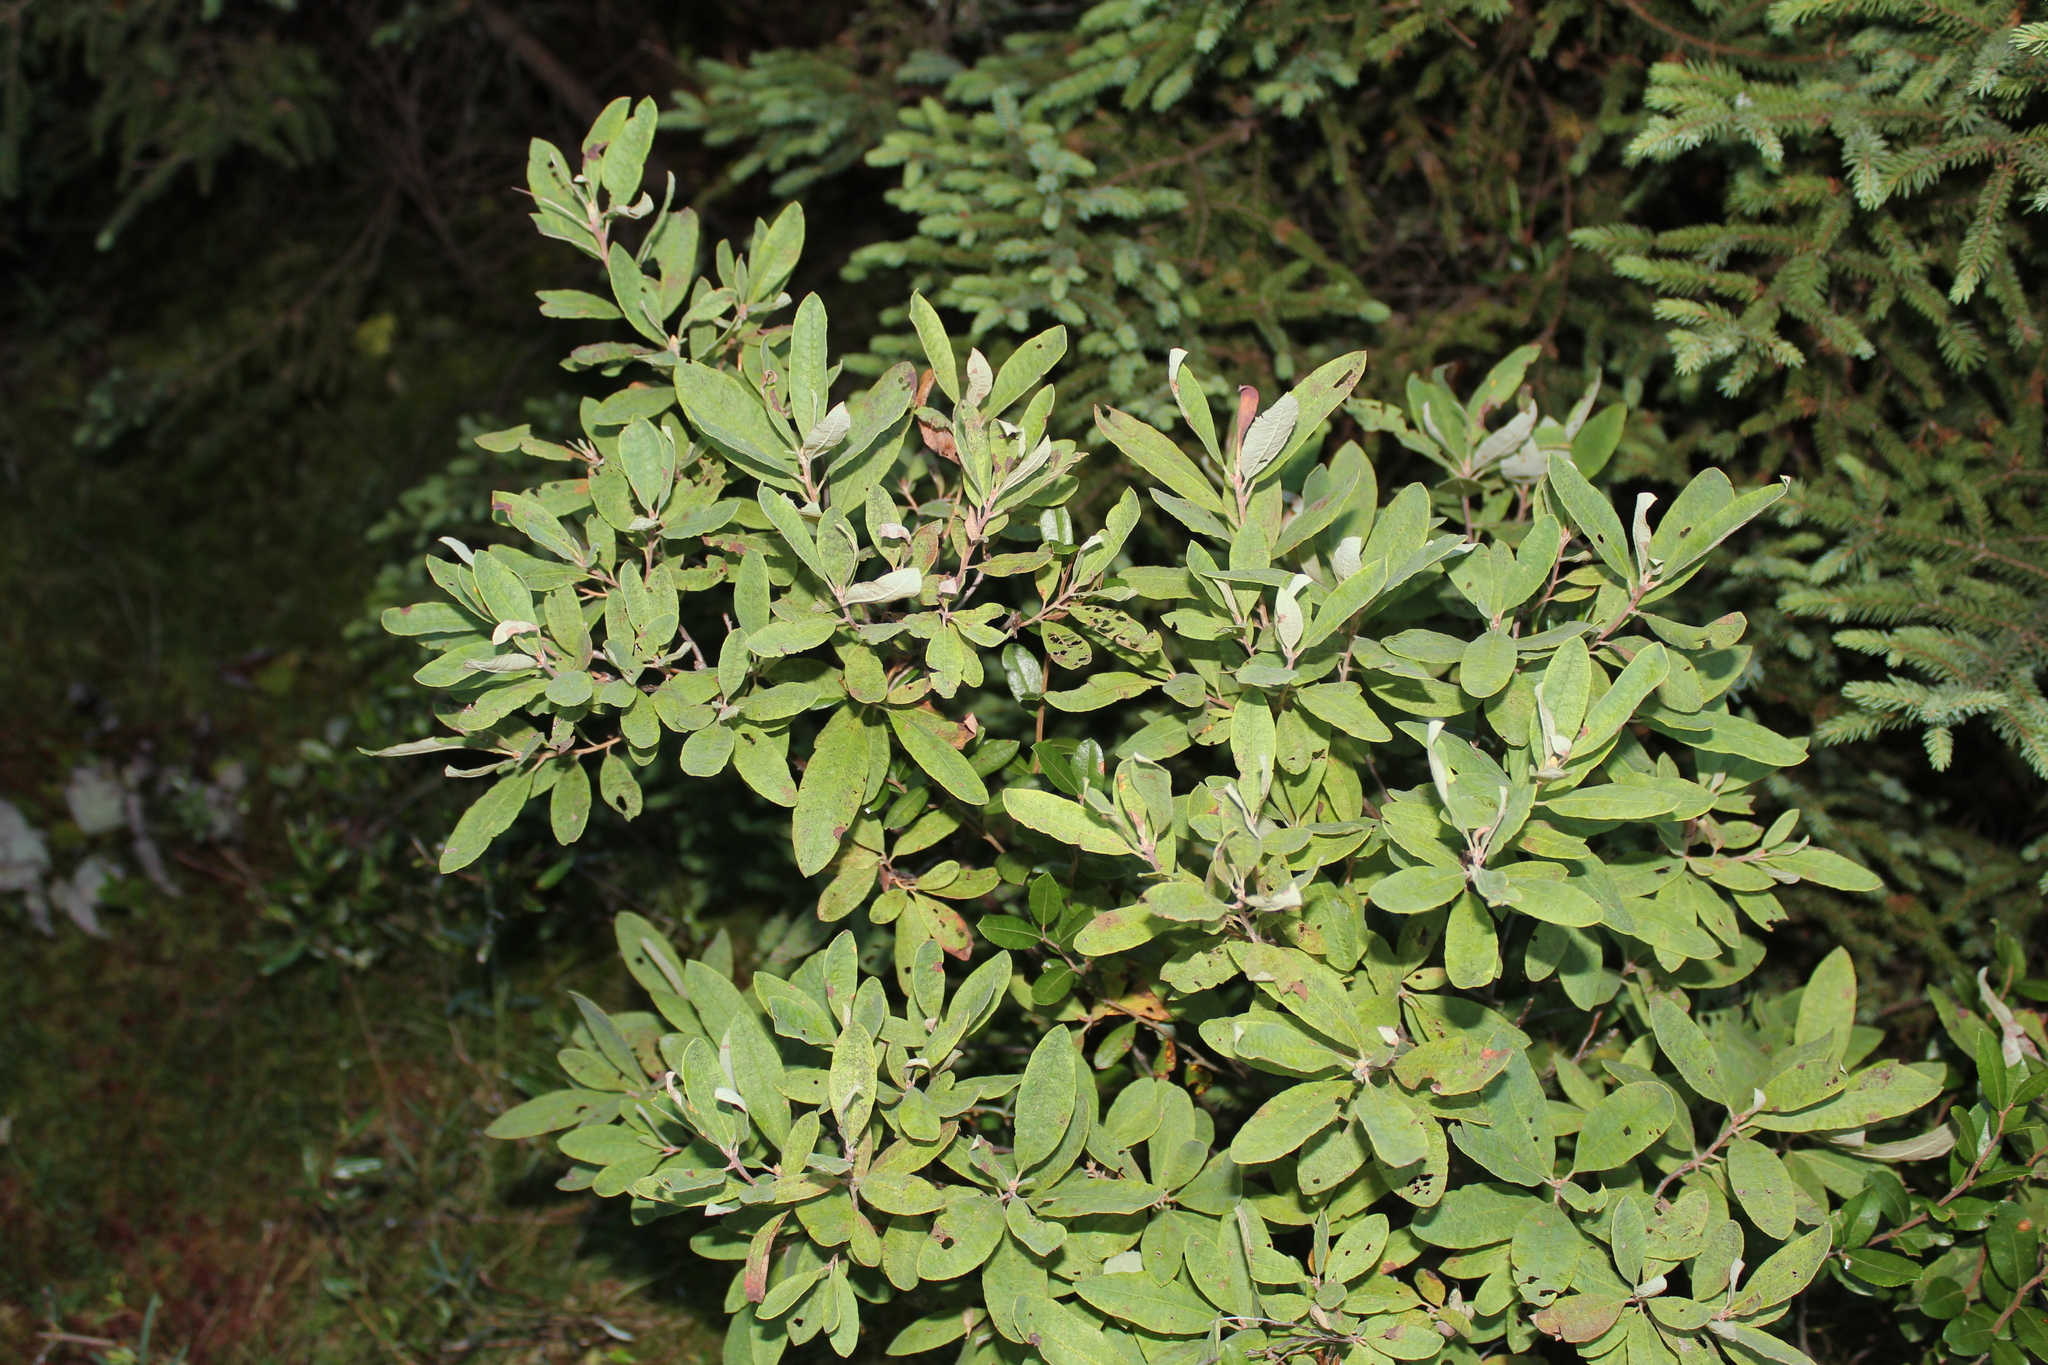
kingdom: Plantae
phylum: Tracheophyta
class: Magnoliopsida
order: Ericales
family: Ericaceae
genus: Rhododendron
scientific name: Rhododendron canadense
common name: Rhodora
